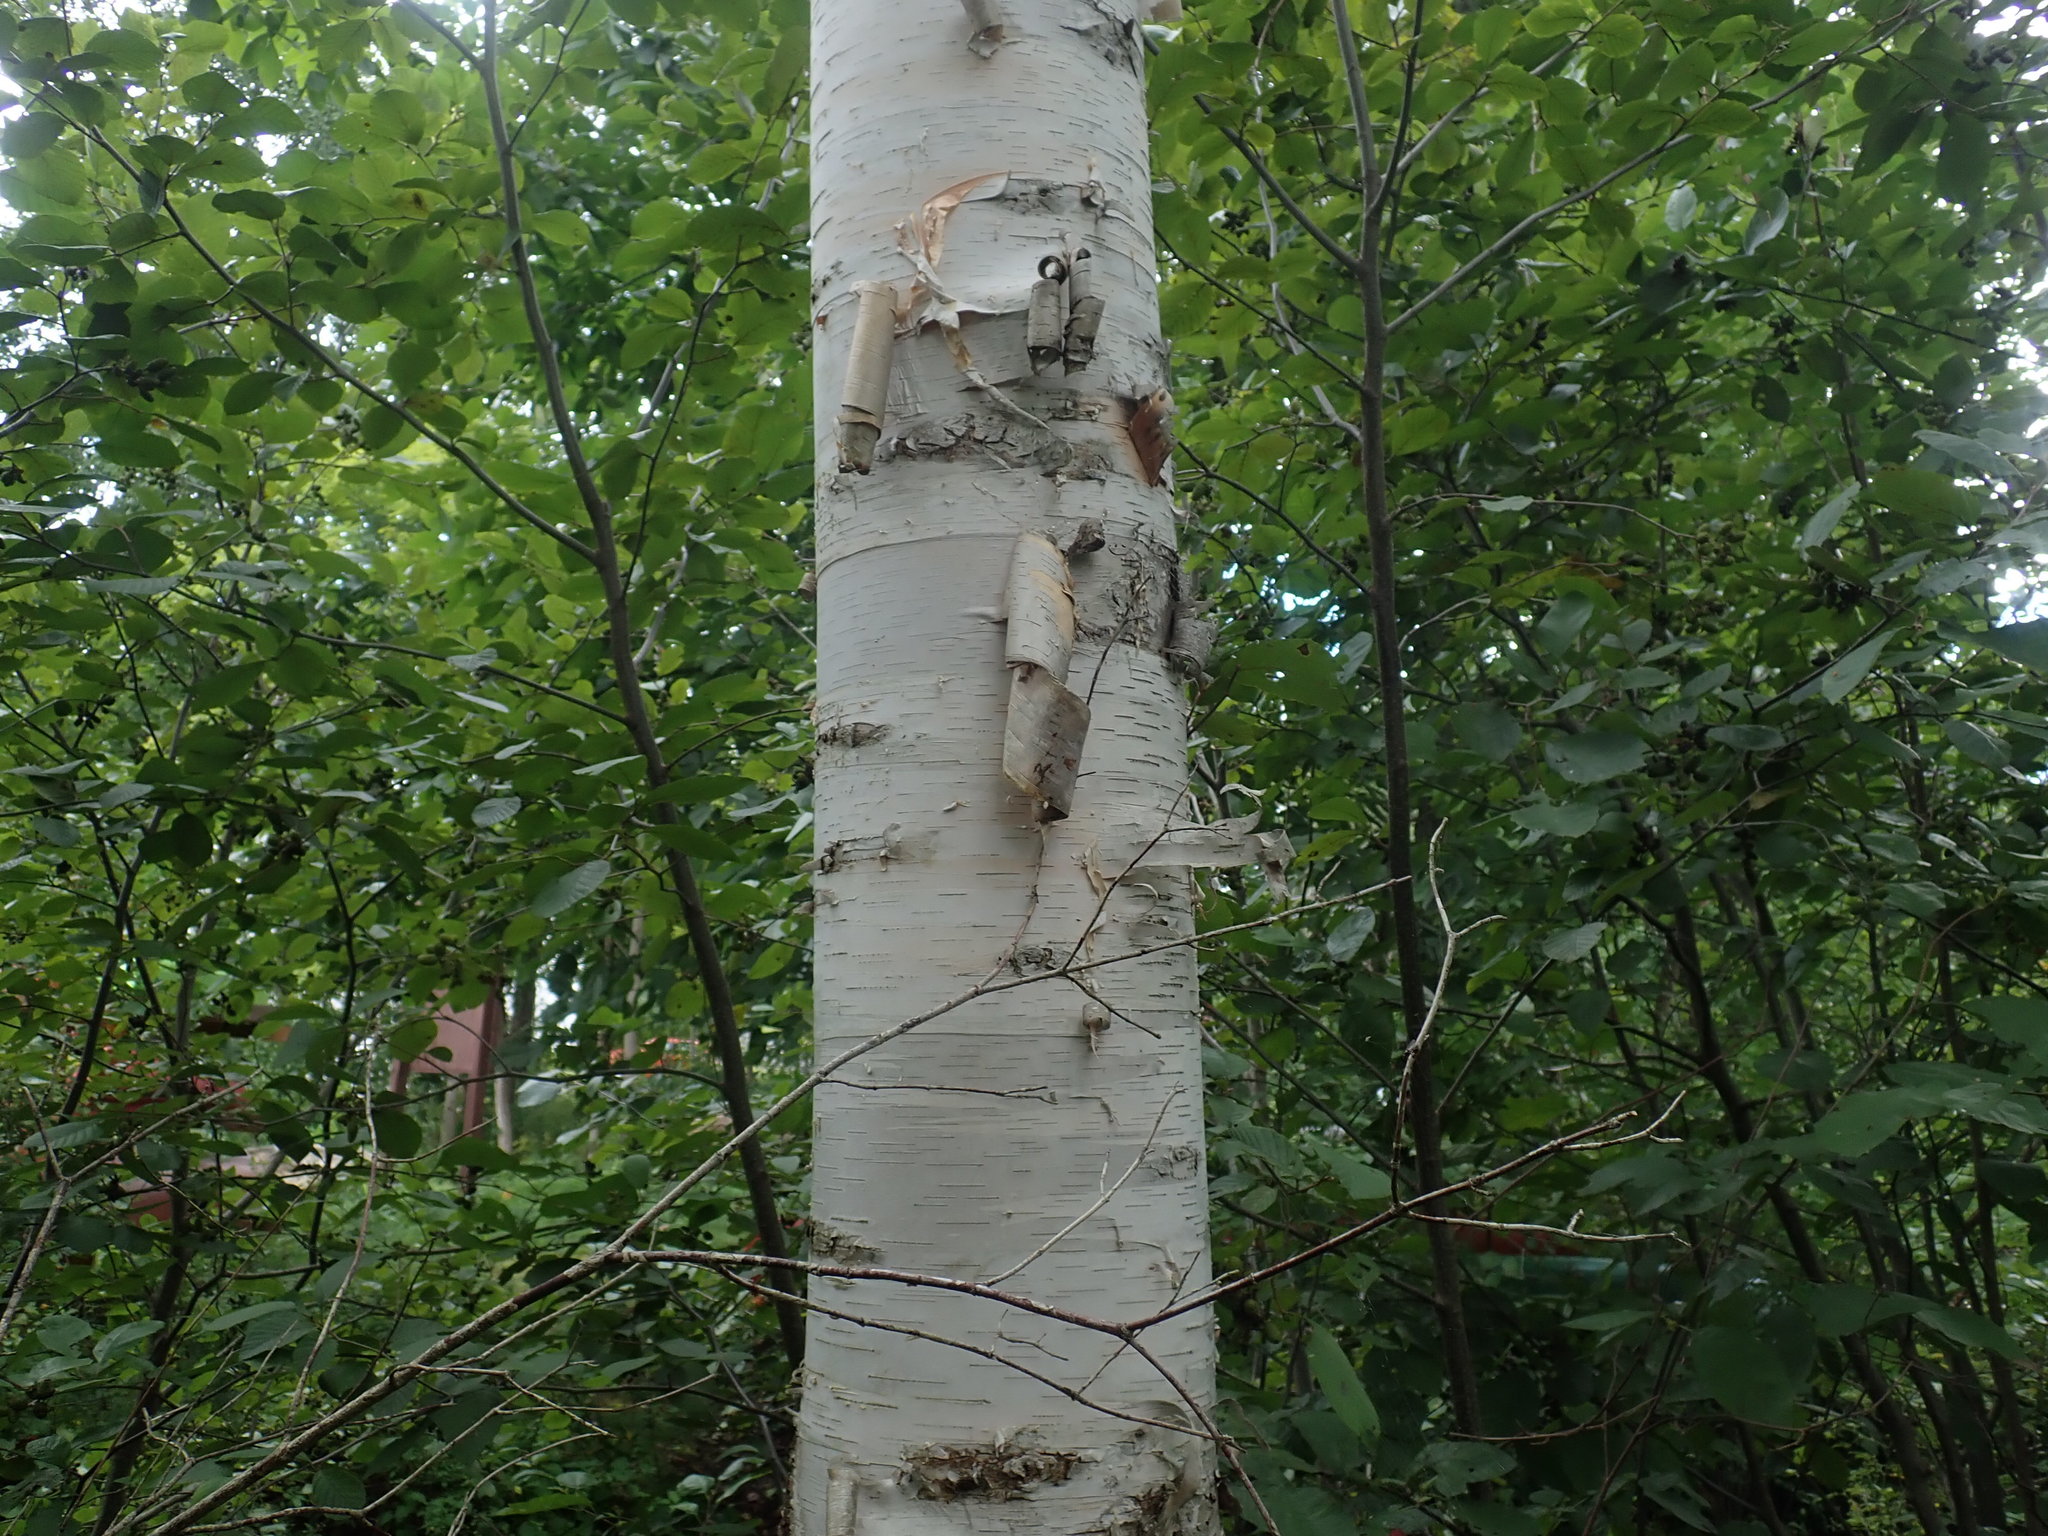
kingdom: Plantae
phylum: Tracheophyta
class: Magnoliopsida
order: Fagales
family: Betulaceae
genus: Betula
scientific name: Betula papyrifera
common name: Paper birch
